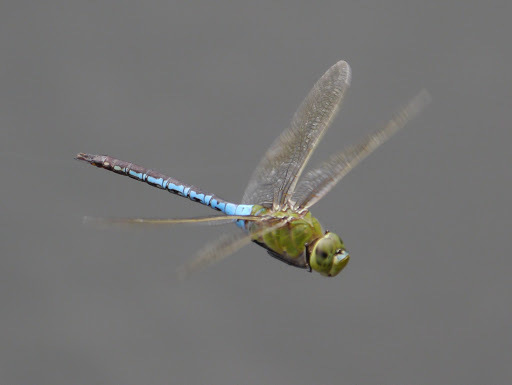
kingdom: Animalia
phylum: Arthropoda
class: Insecta
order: Odonata
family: Aeshnidae
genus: Anax
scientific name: Anax junius
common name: Common green darner
